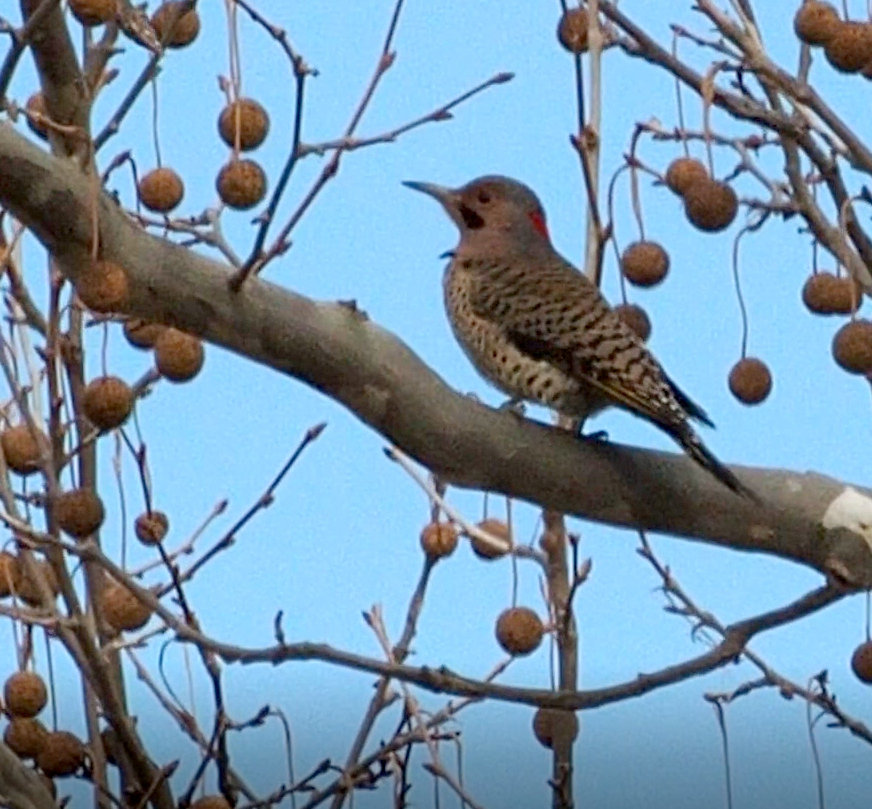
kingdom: Animalia
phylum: Chordata
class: Aves
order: Piciformes
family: Picidae
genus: Colaptes
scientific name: Colaptes auratus
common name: Northern flicker
